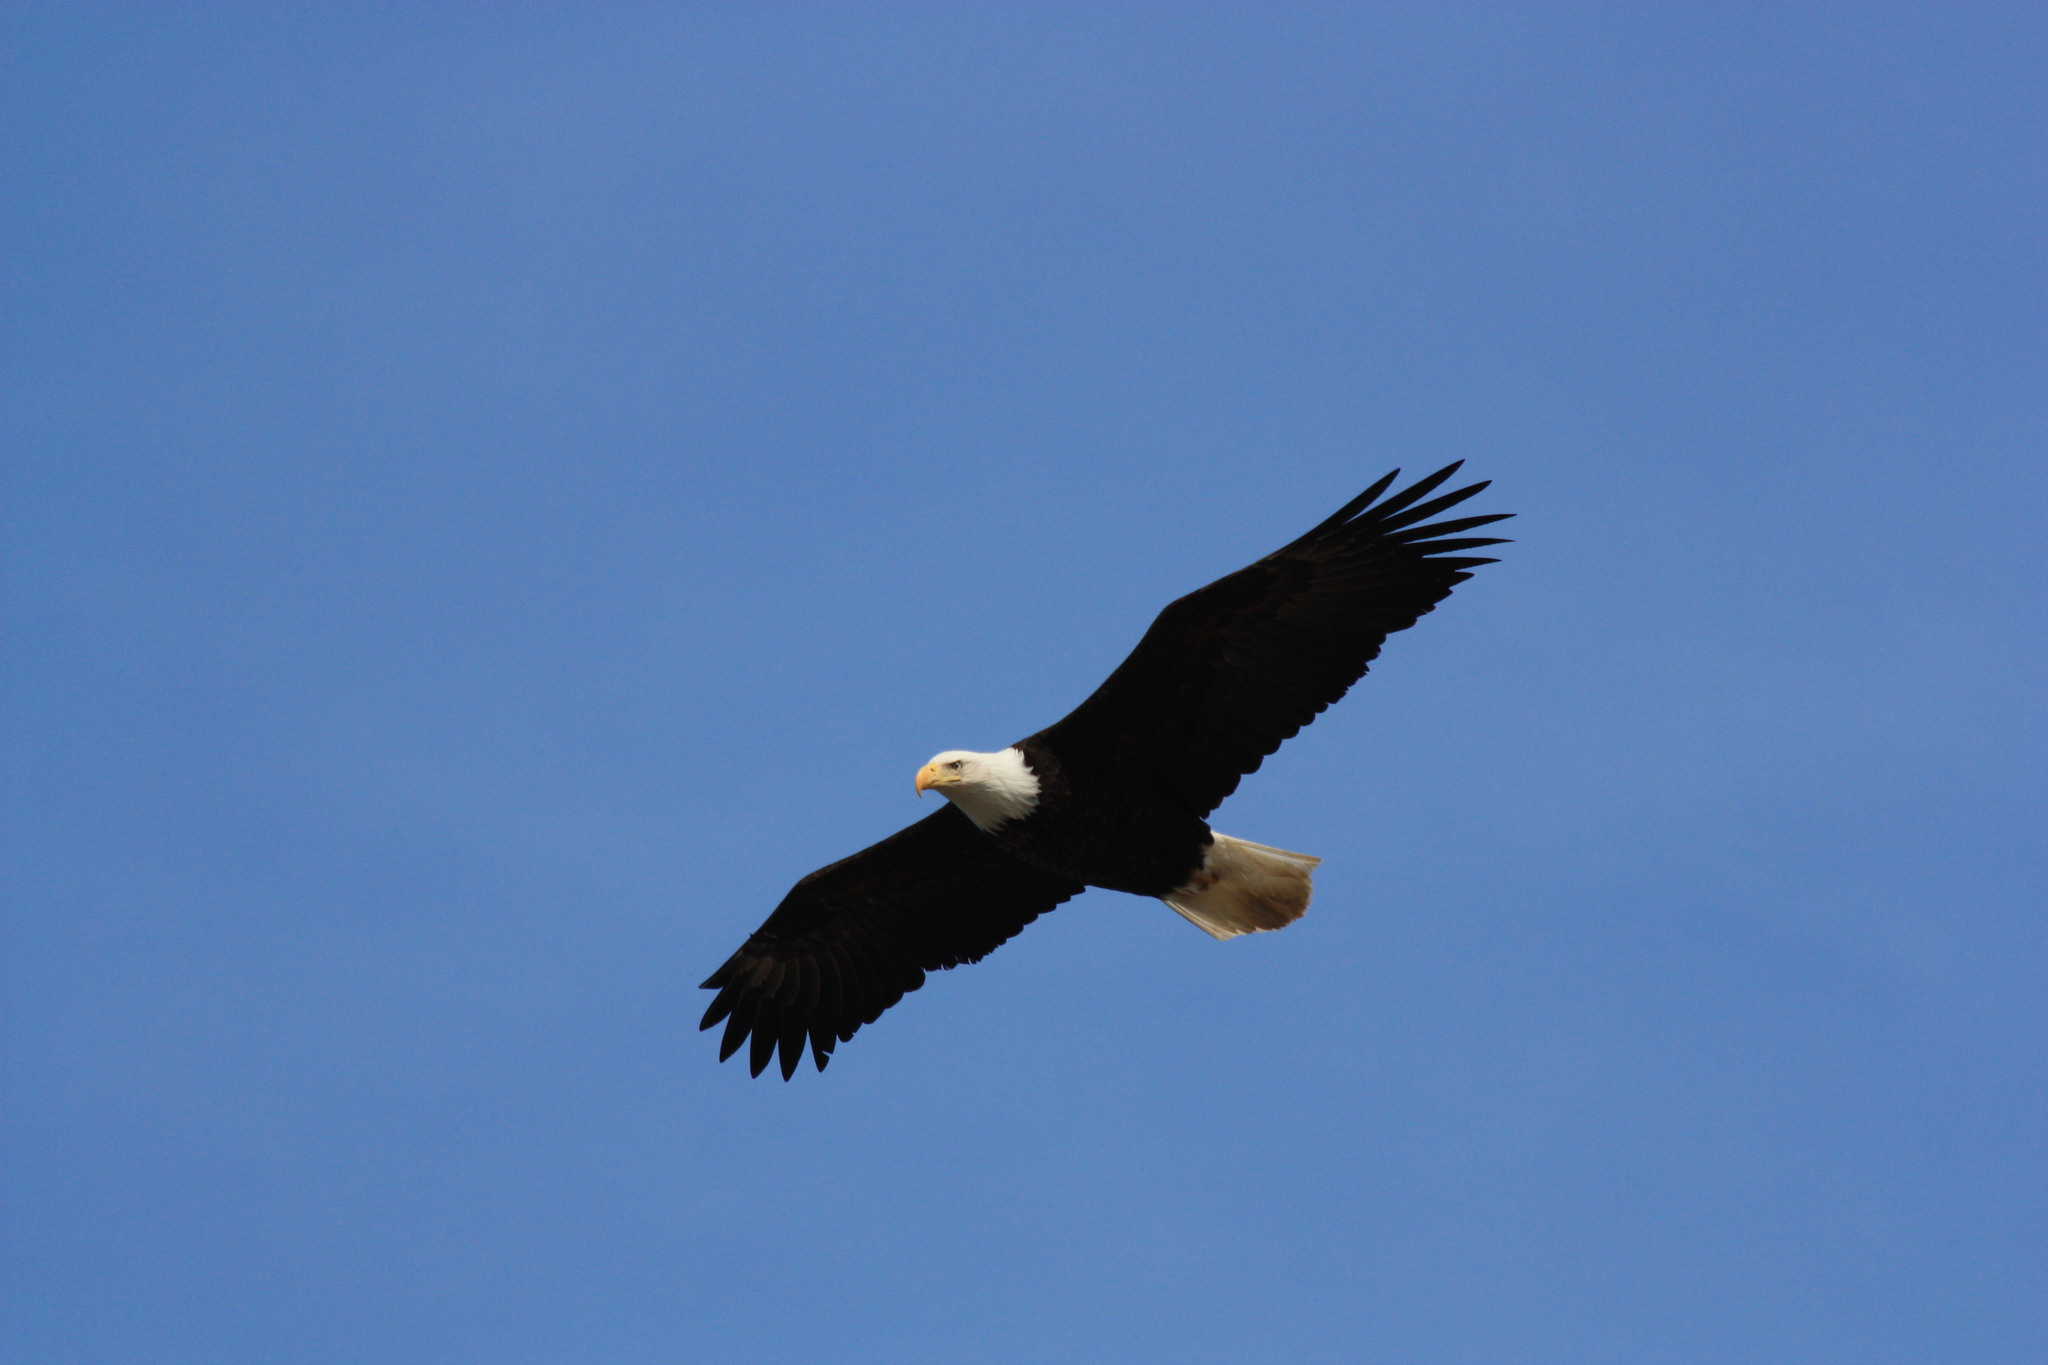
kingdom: Animalia
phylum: Chordata
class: Aves
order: Accipitriformes
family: Accipitridae
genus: Haliaeetus
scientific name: Haliaeetus leucocephalus
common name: Bald eagle
